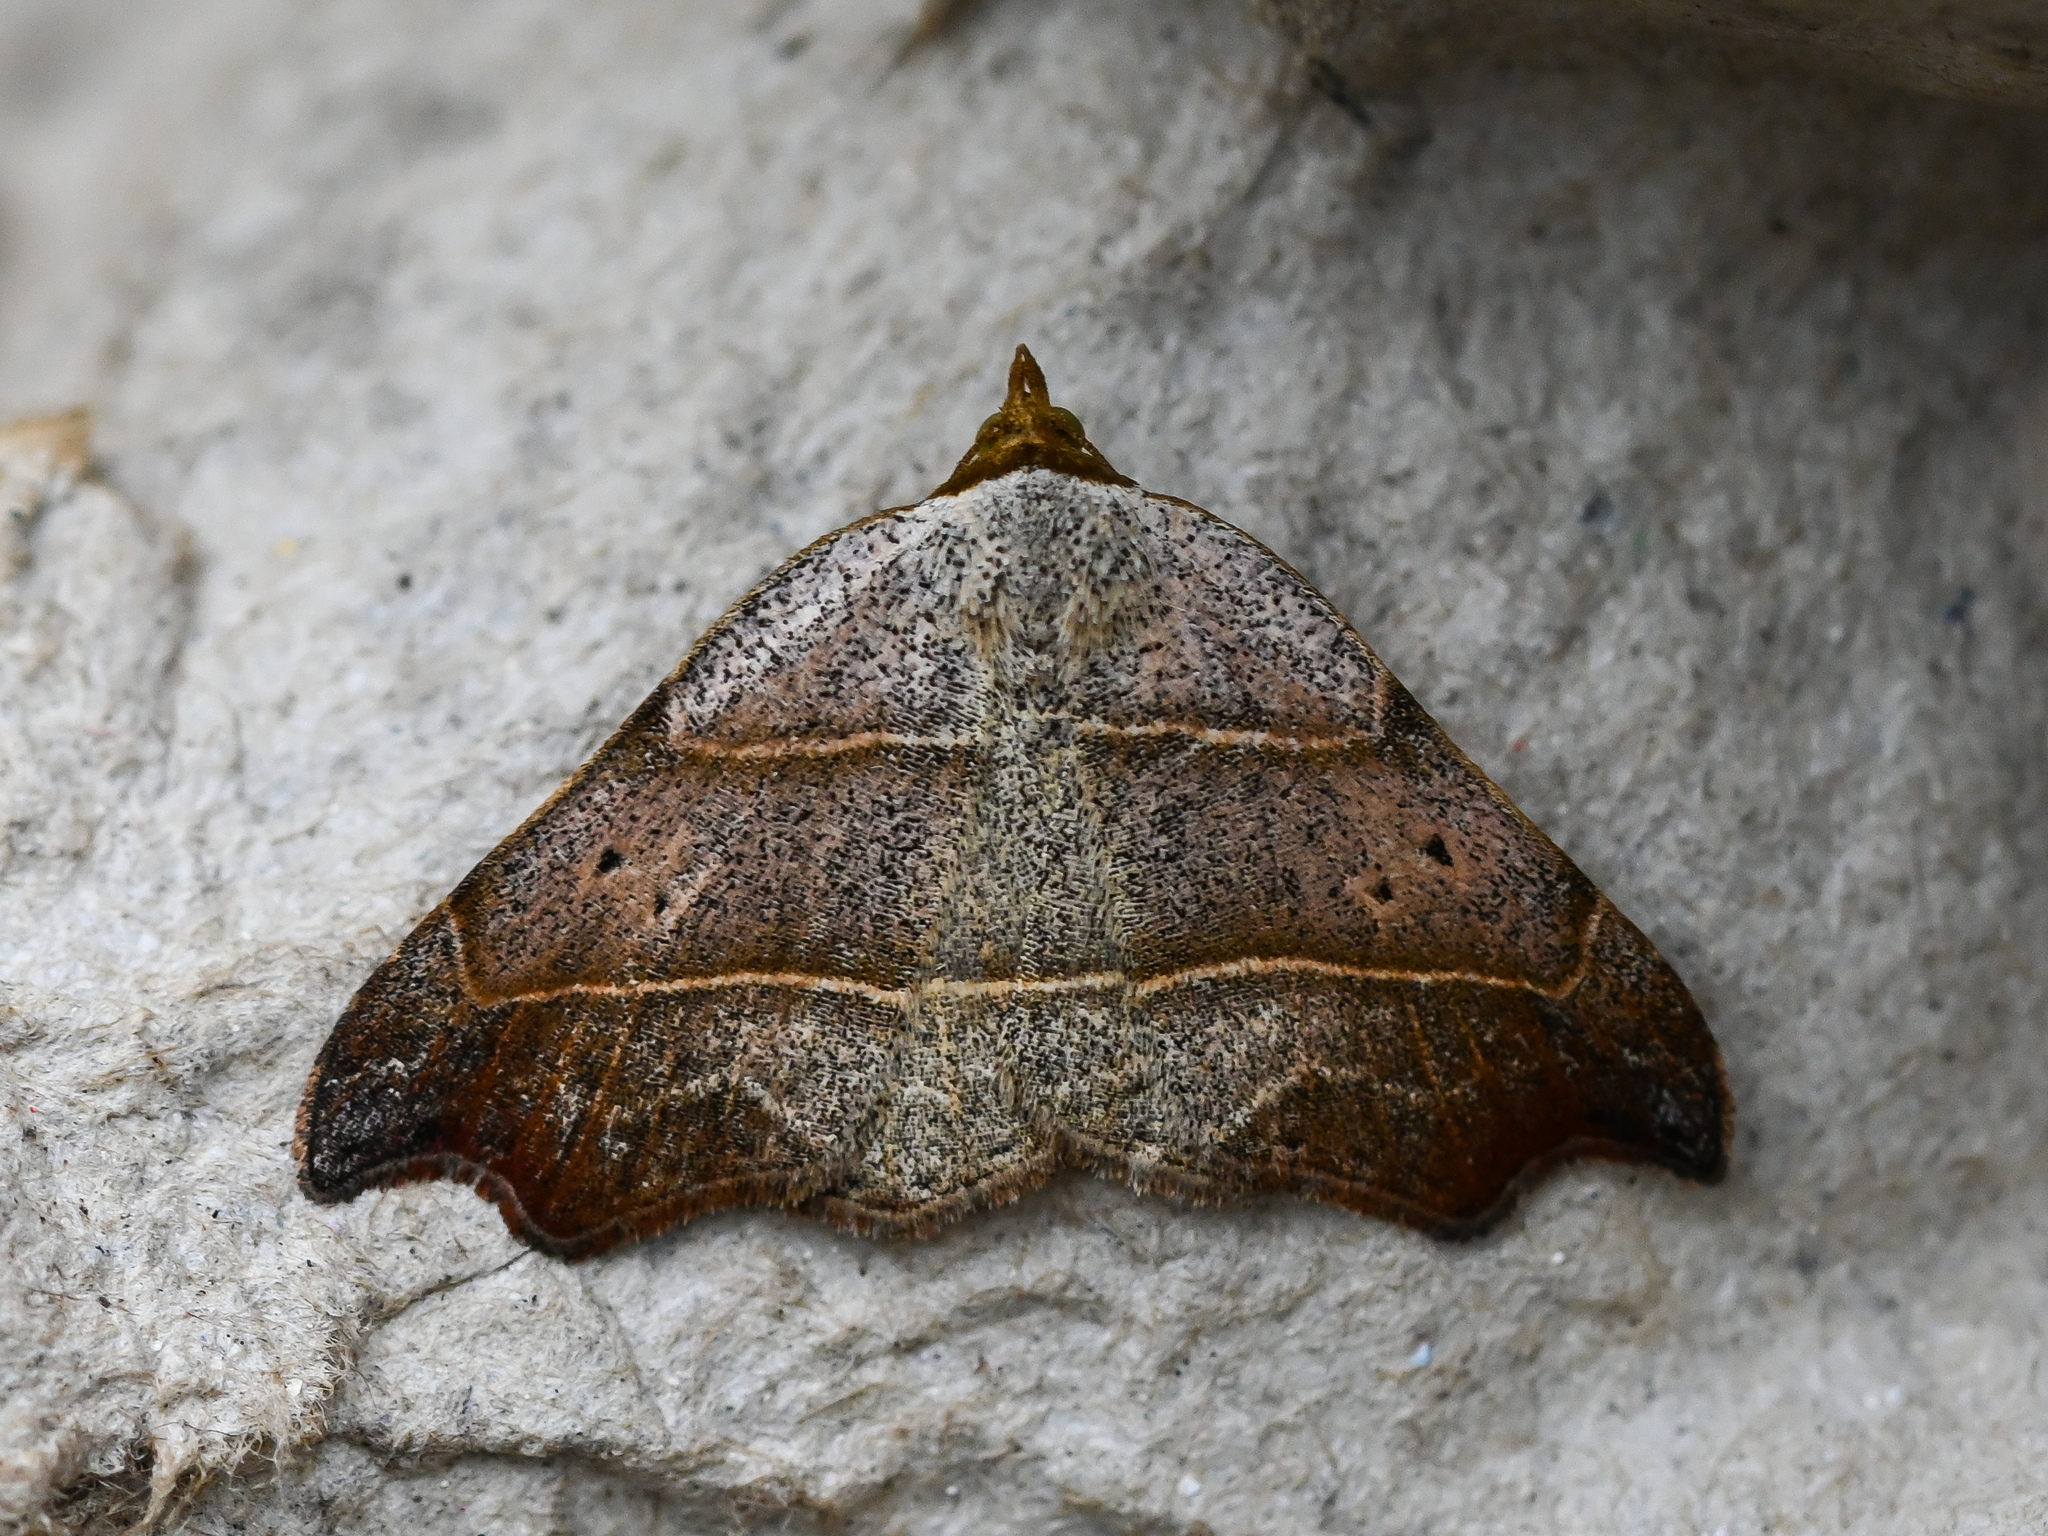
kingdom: Animalia
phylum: Arthropoda
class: Insecta
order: Lepidoptera
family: Erebidae
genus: Laspeyria
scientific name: Laspeyria flexula
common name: Beautiful hook-tip
